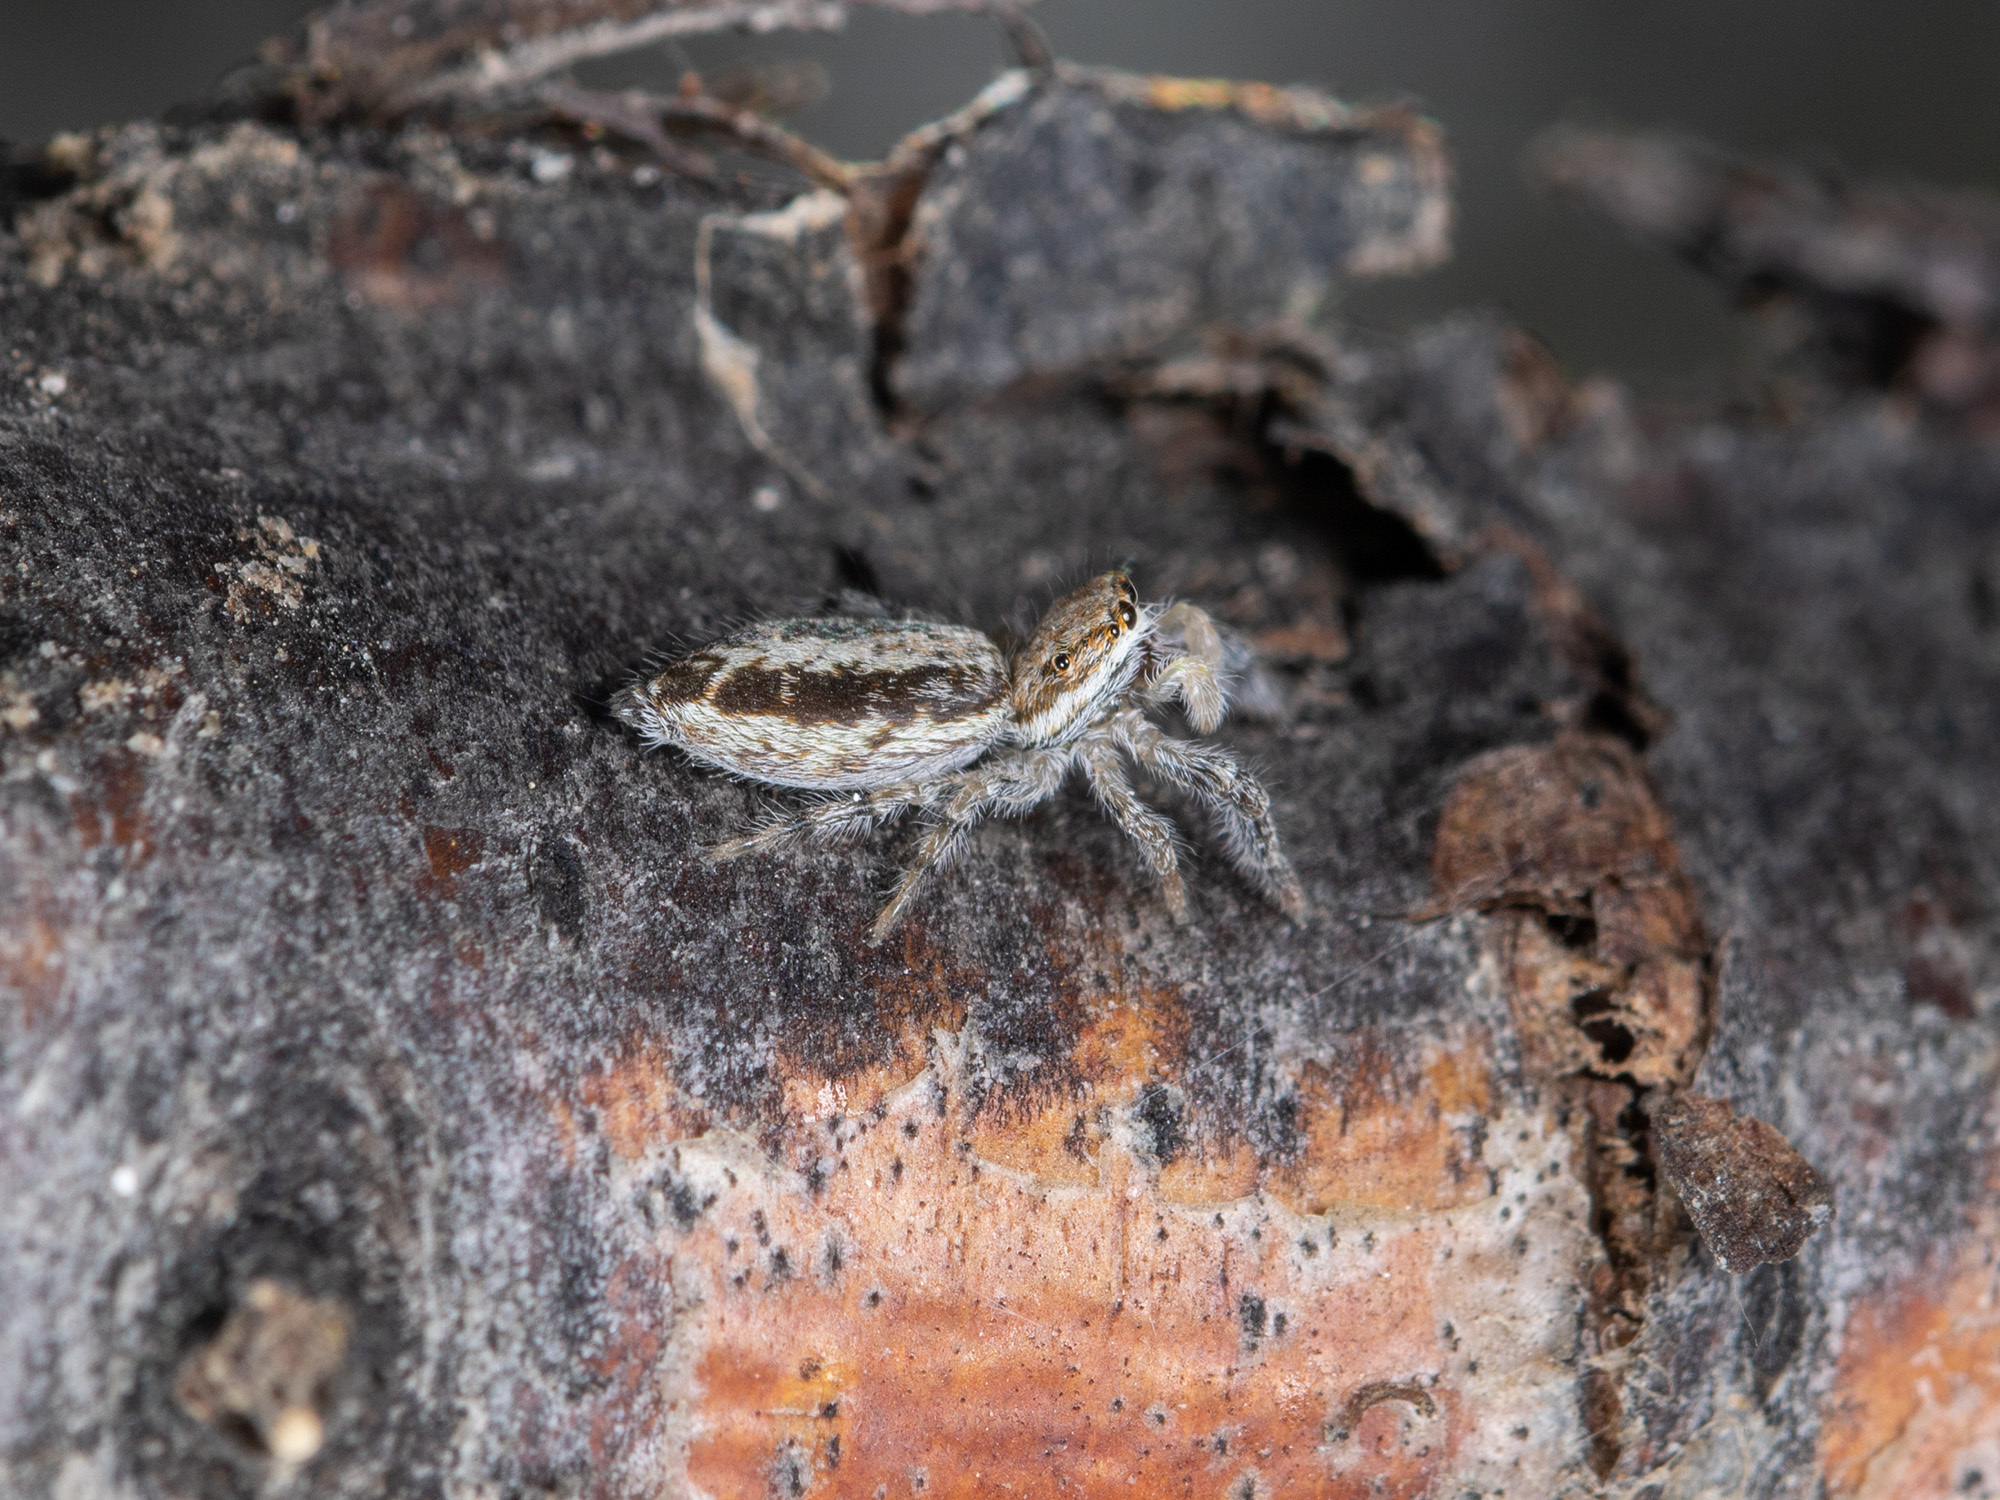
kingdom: Animalia
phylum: Arthropoda
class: Arachnida
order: Araneae
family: Salticidae
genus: Pseudicius
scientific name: Pseudicius courtauldi
